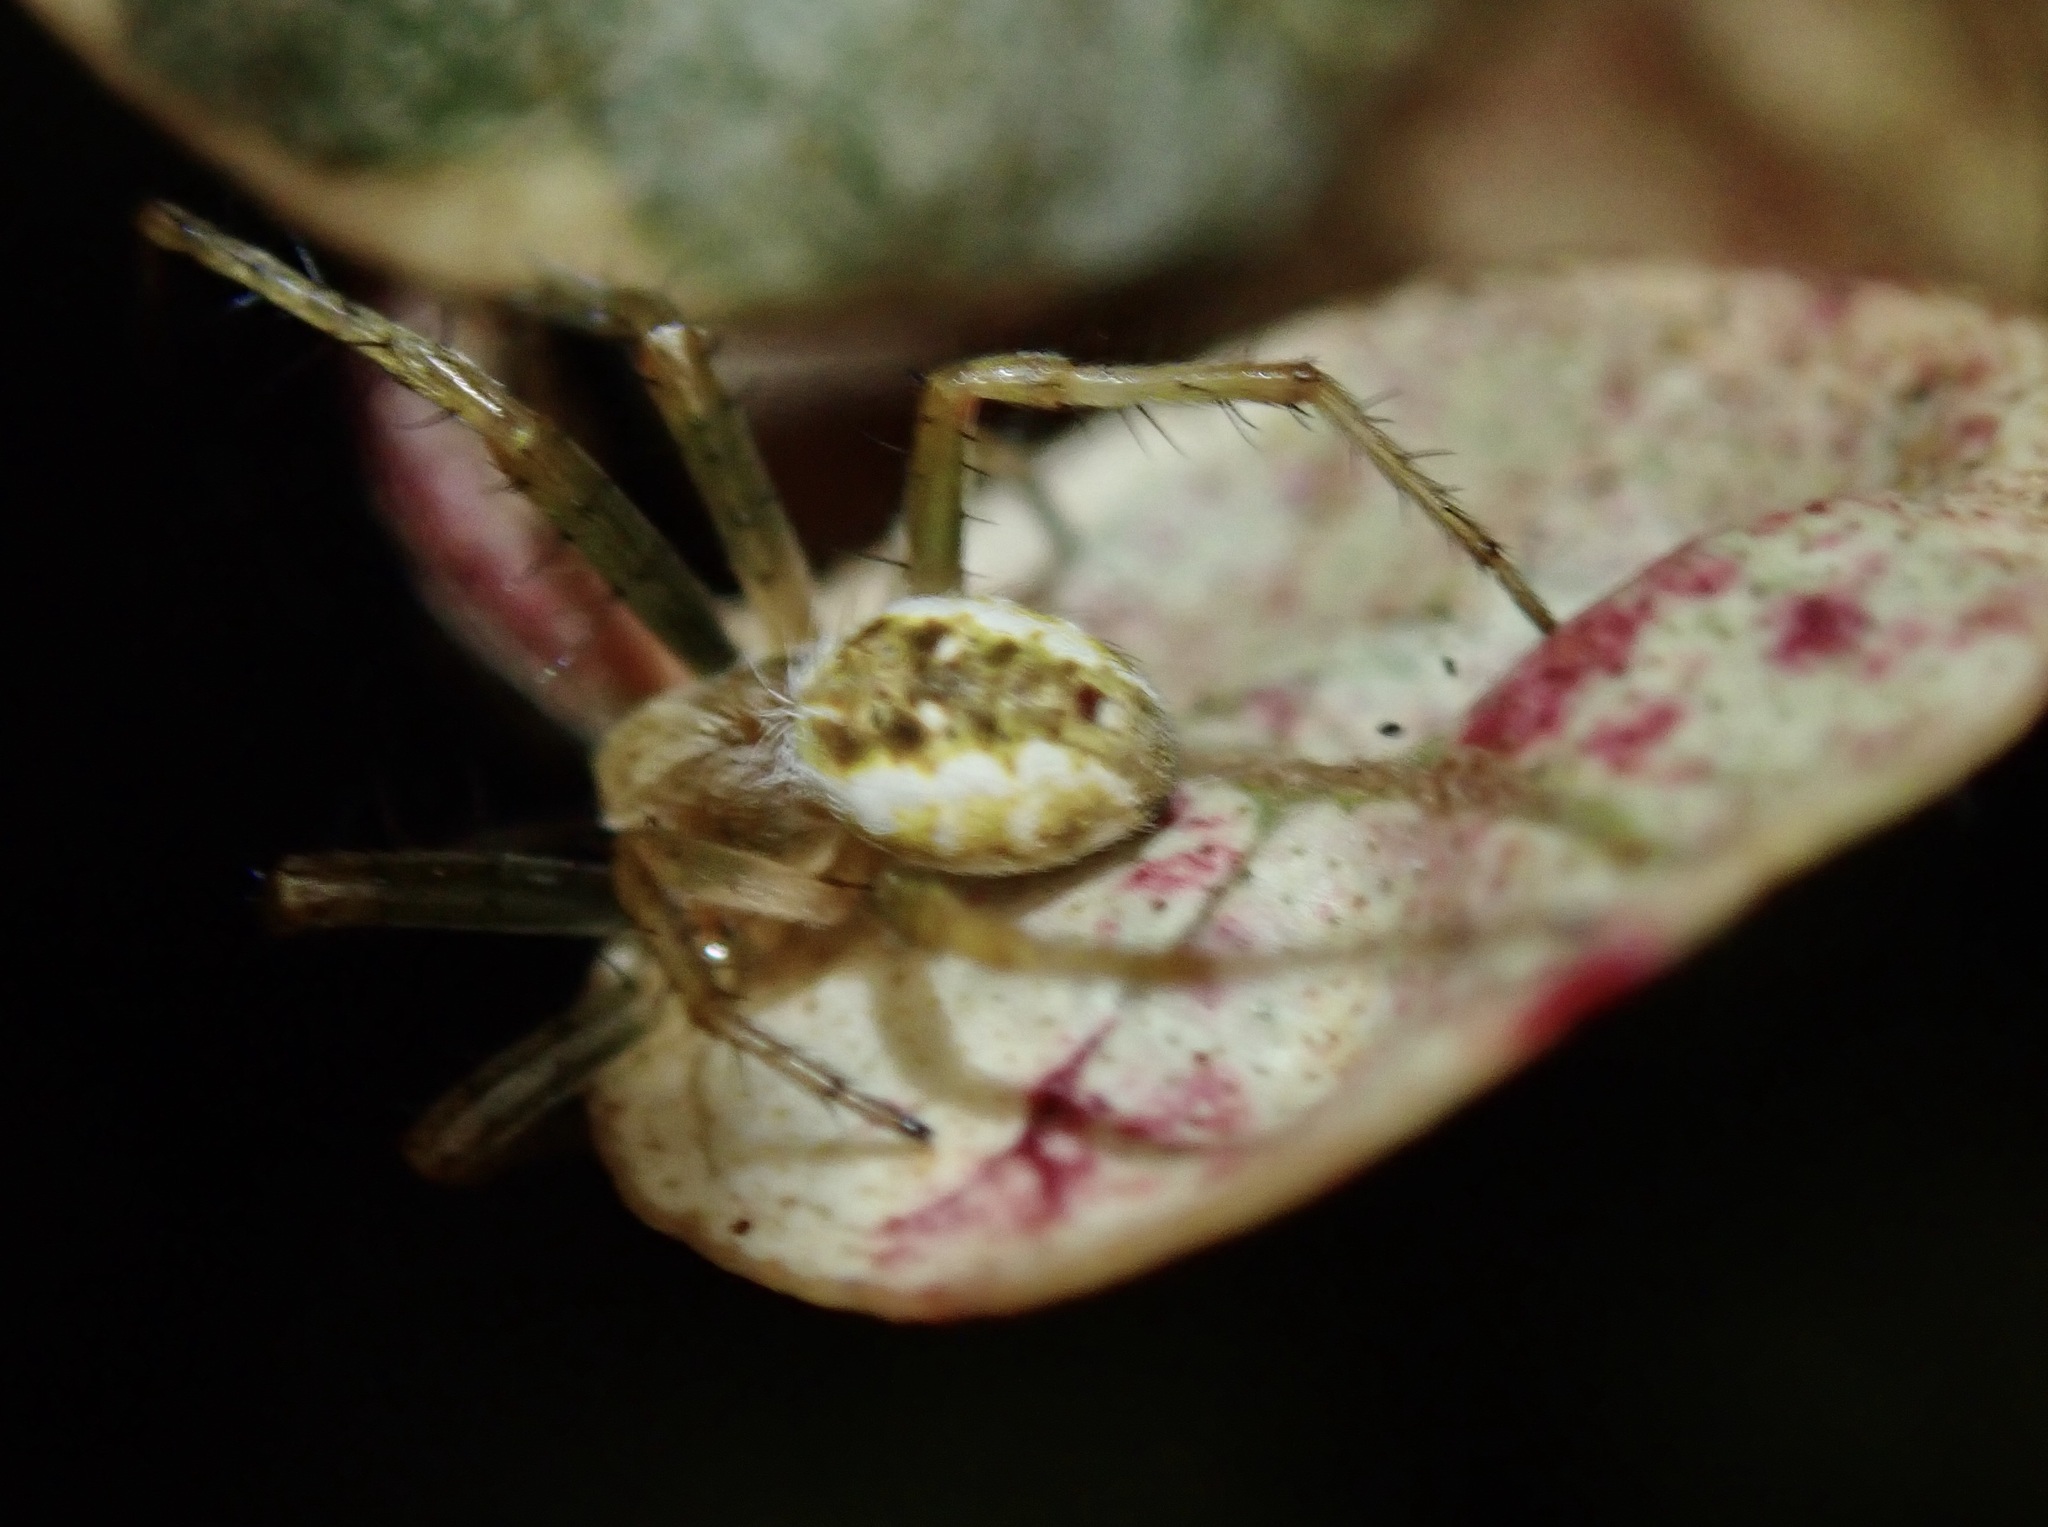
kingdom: Animalia
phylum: Arthropoda
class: Arachnida
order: Araneae
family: Araneidae
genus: Salsa
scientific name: Salsa fuliginata
